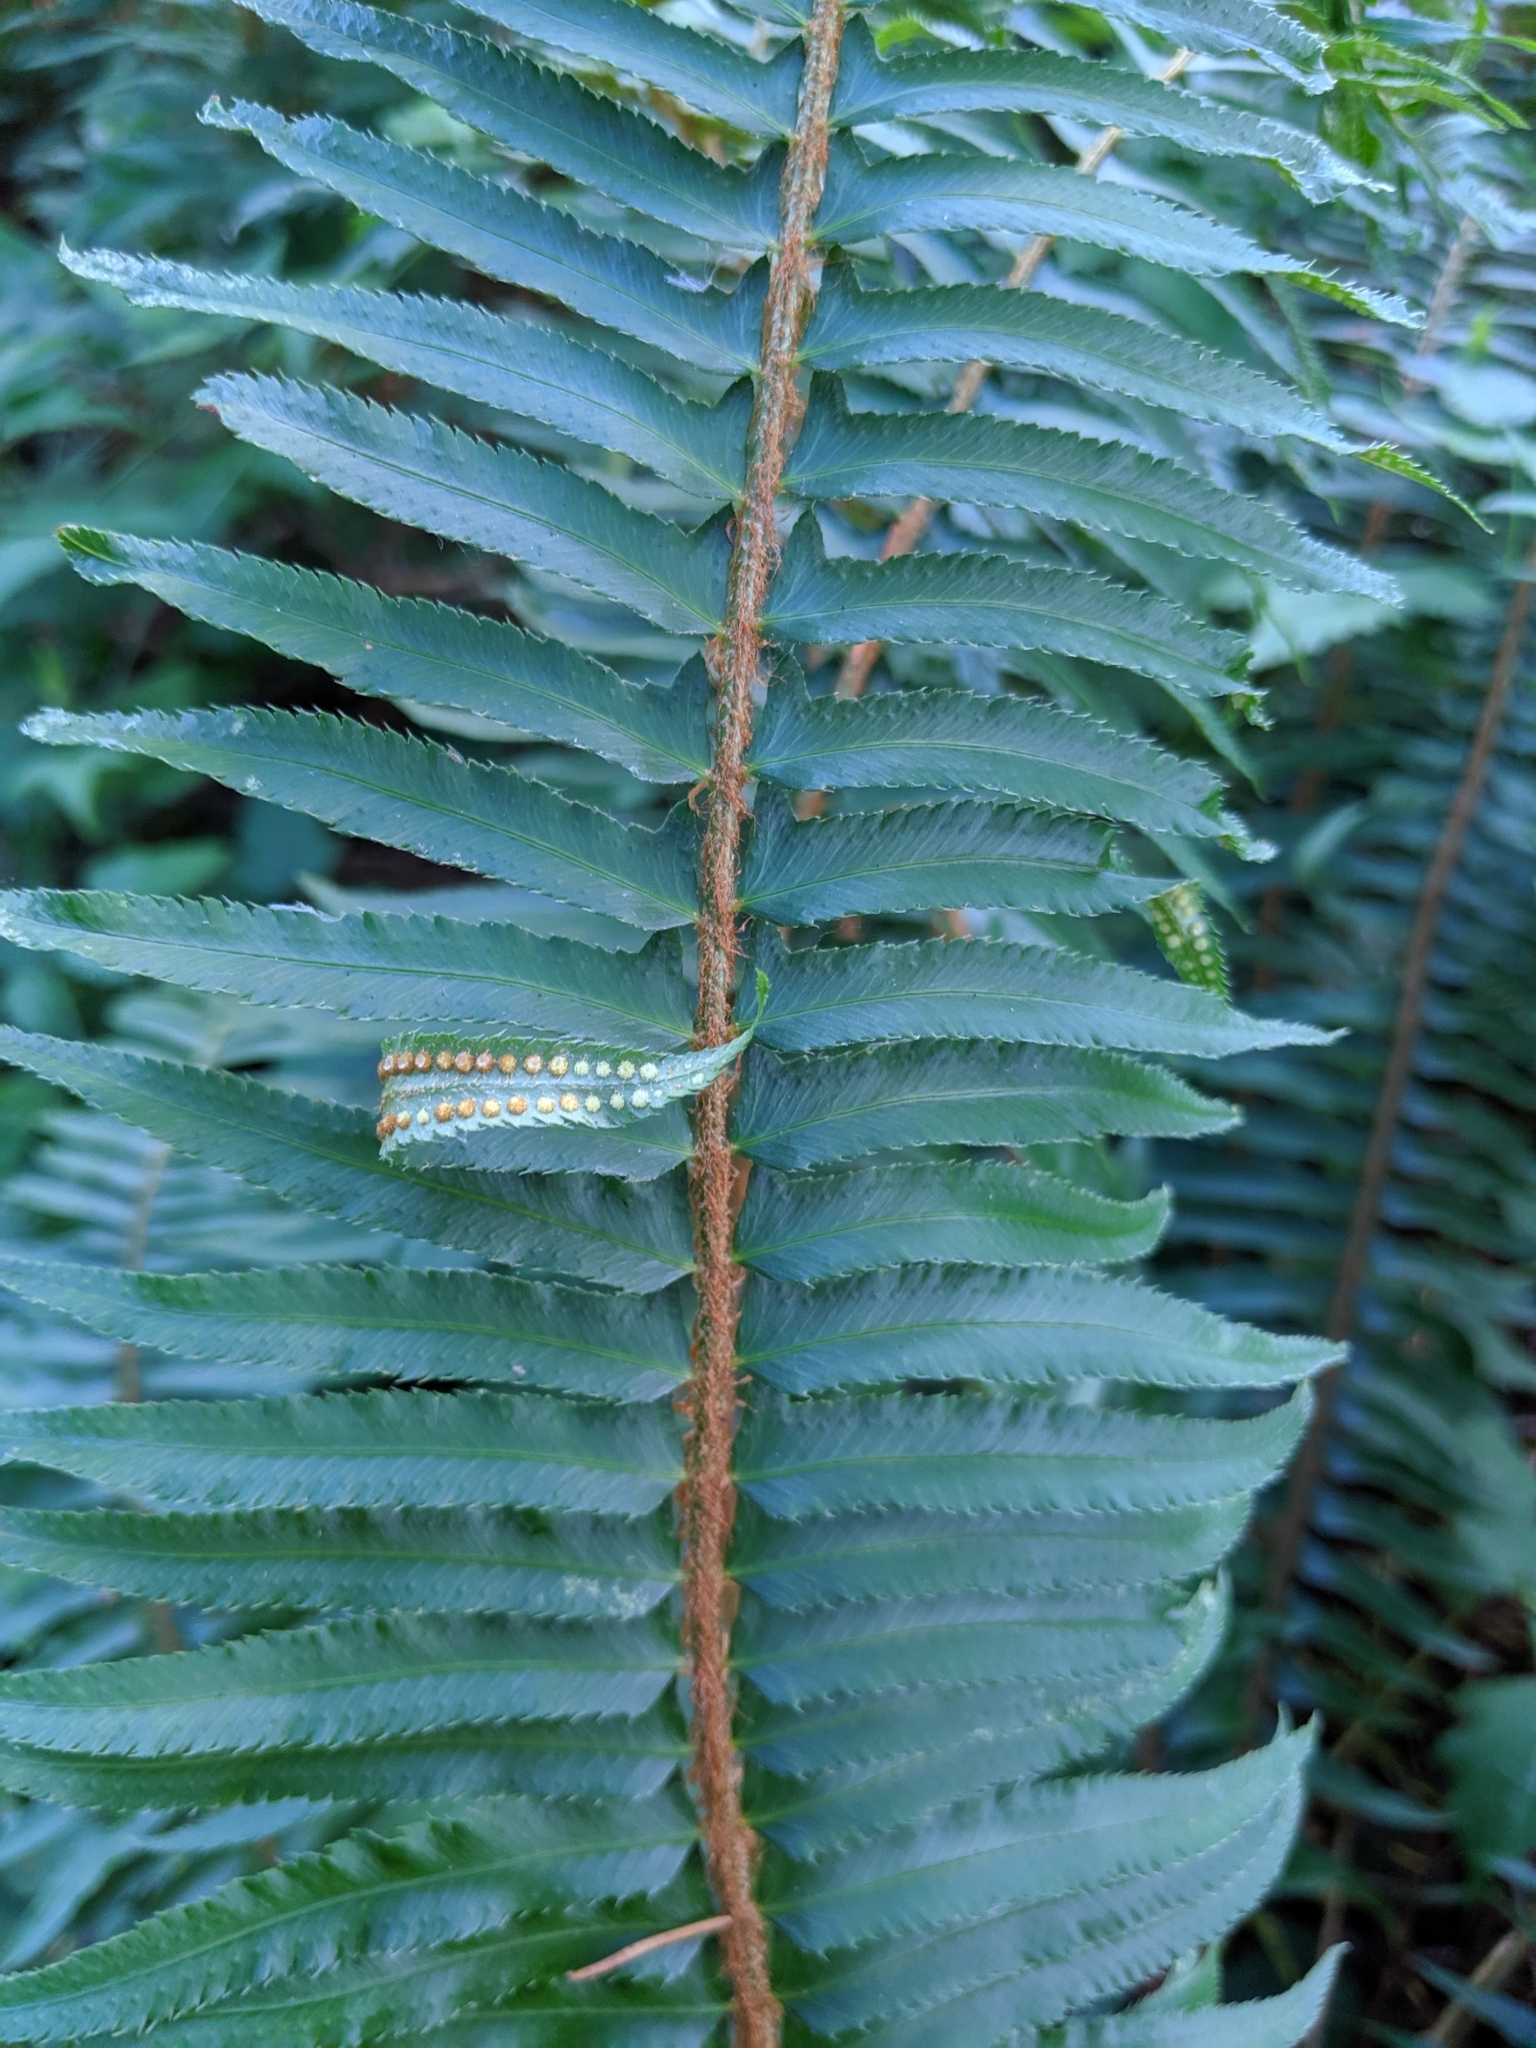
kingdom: Plantae
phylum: Tracheophyta
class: Polypodiopsida
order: Polypodiales
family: Dryopteridaceae
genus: Polystichum
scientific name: Polystichum munitum
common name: Western sword-fern
